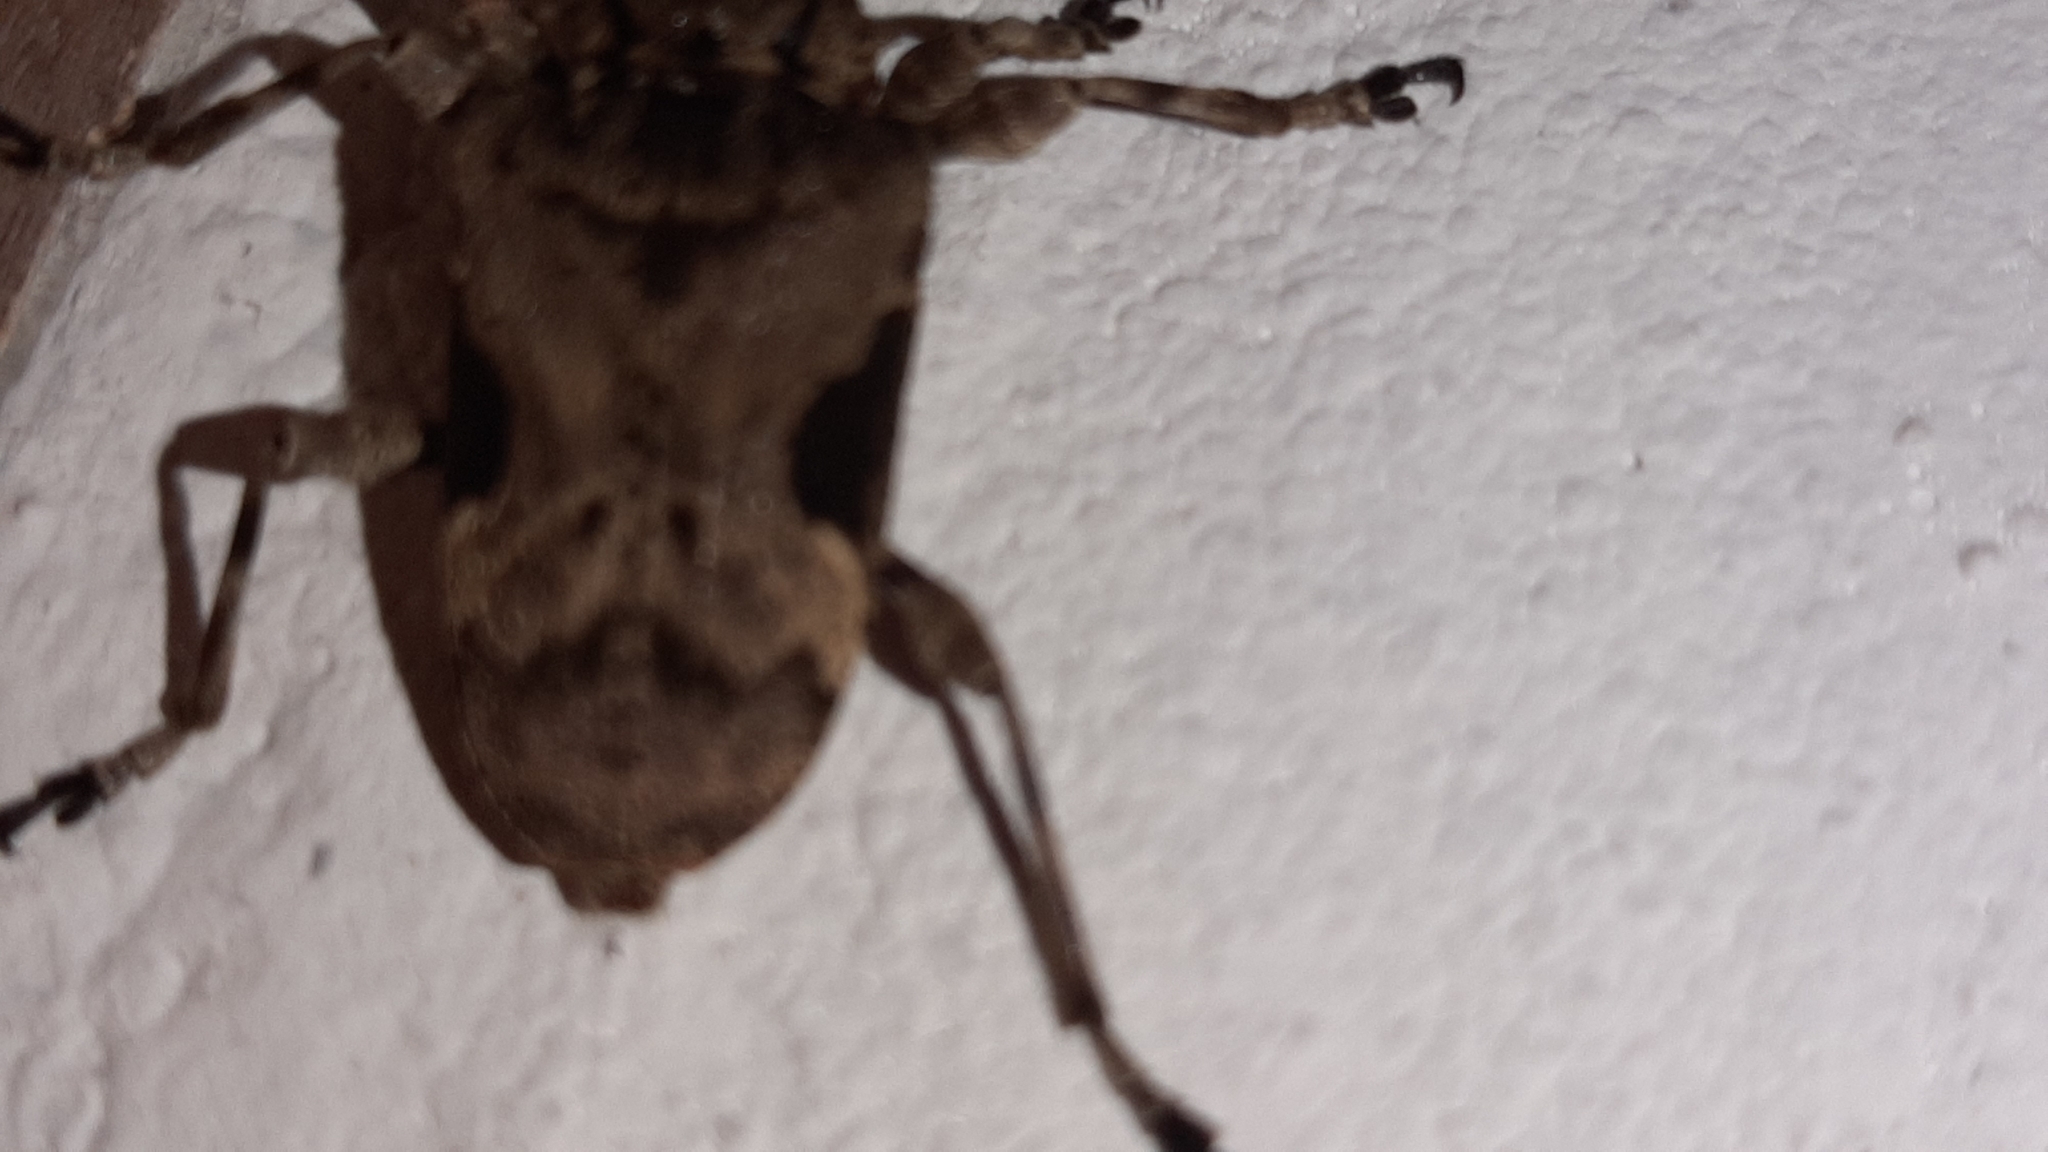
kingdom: Animalia
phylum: Arthropoda
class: Insecta
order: Coleoptera
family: Cerambycidae
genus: Lagocheirus
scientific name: Lagocheirus araneiformis
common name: Beetle
